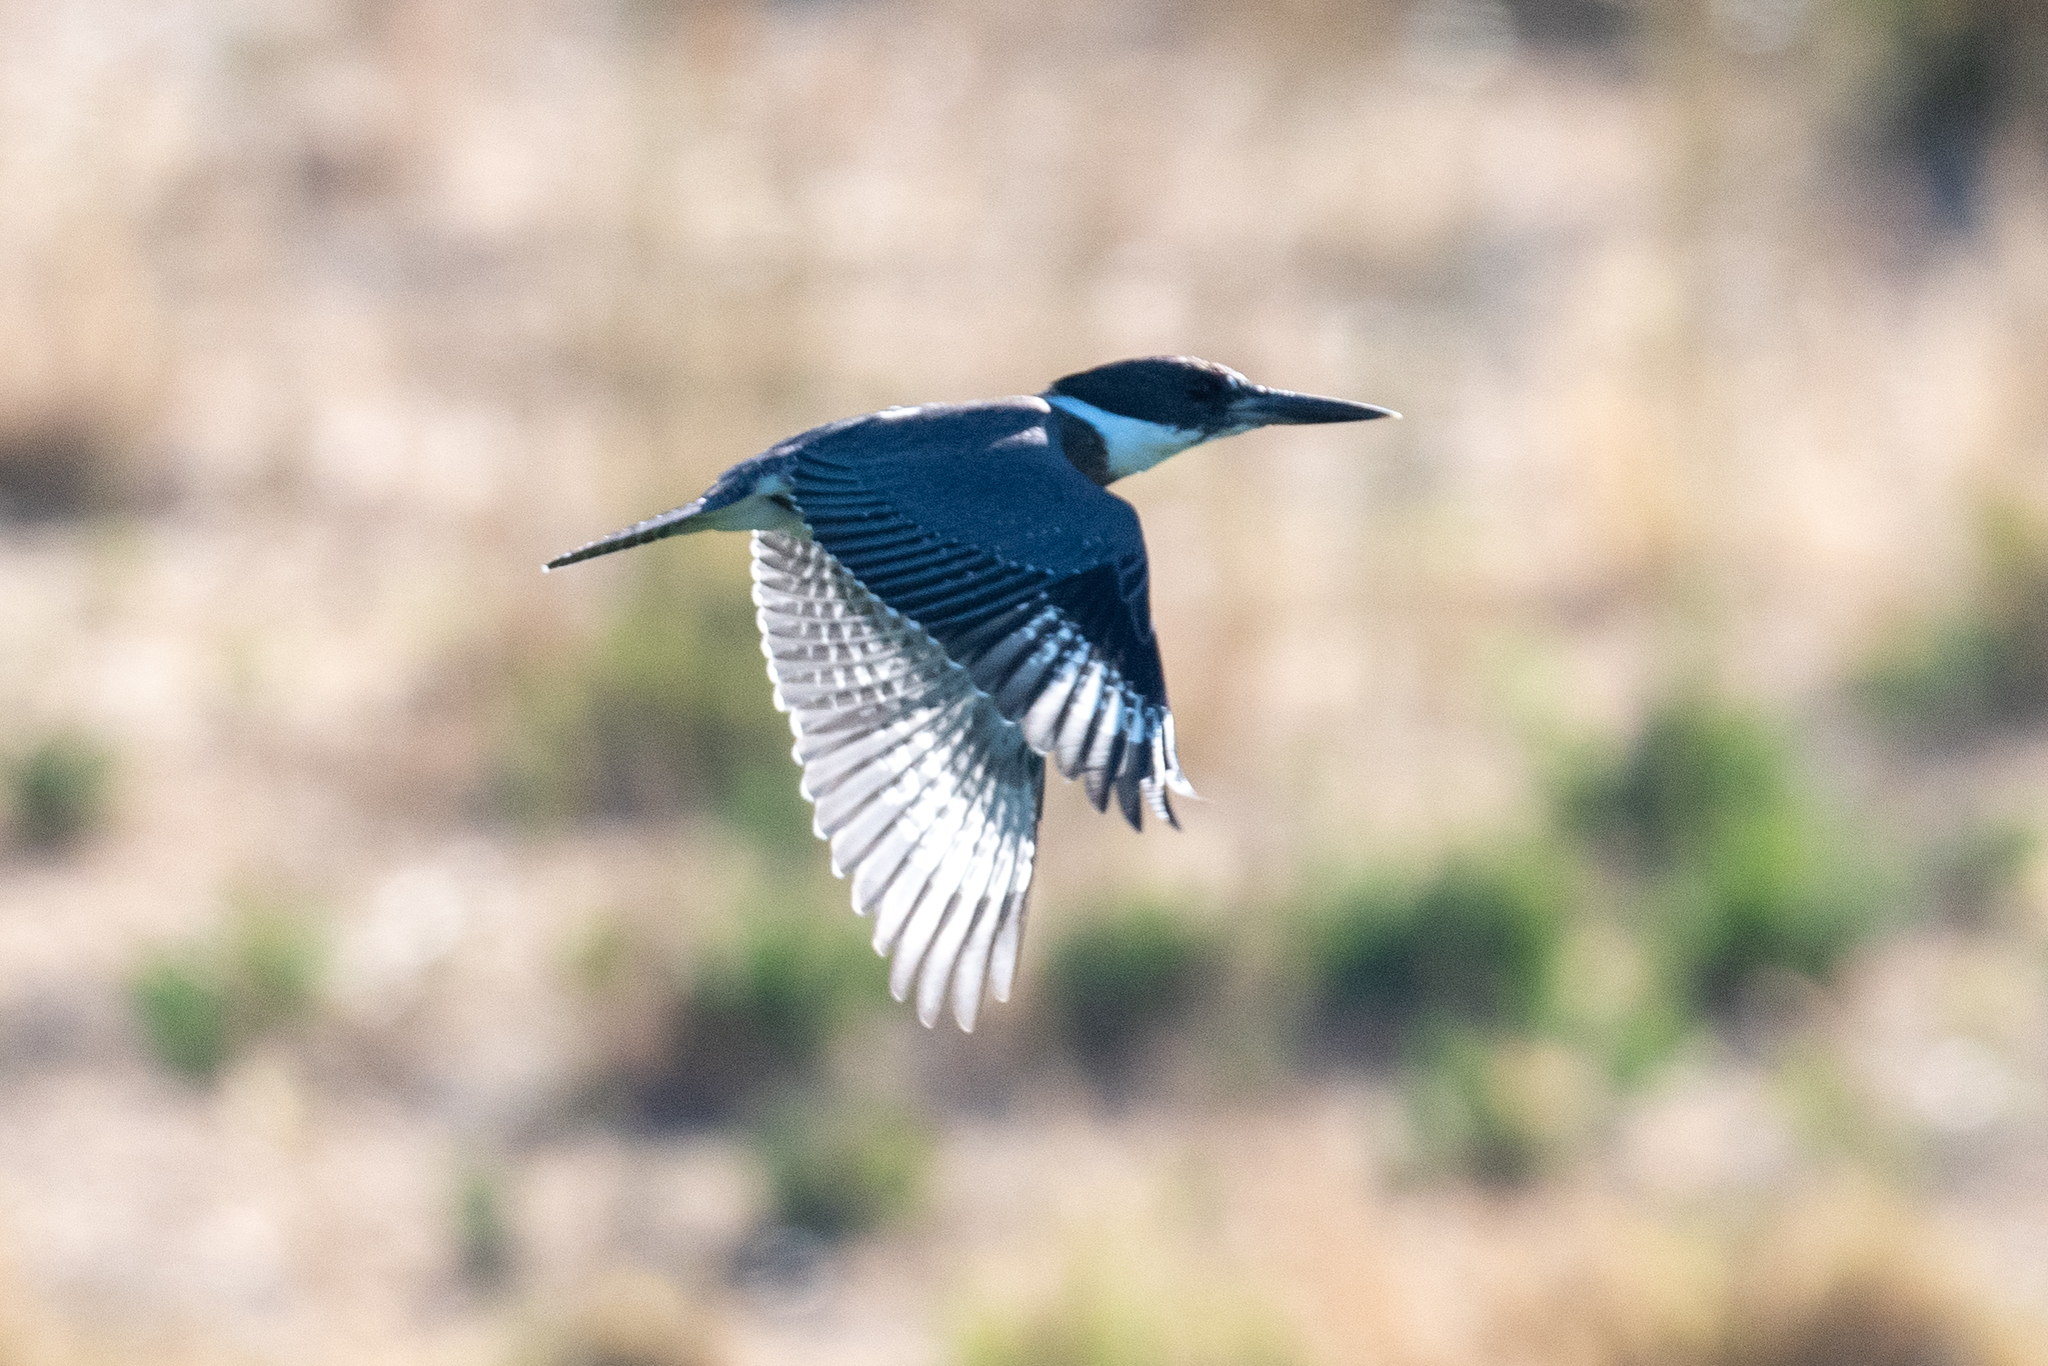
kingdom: Animalia
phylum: Chordata
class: Aves
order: Coraciiformes
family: Alcedinidae
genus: Megaceryle
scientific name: Megaceryle alcyon
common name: Belted kingfisher
